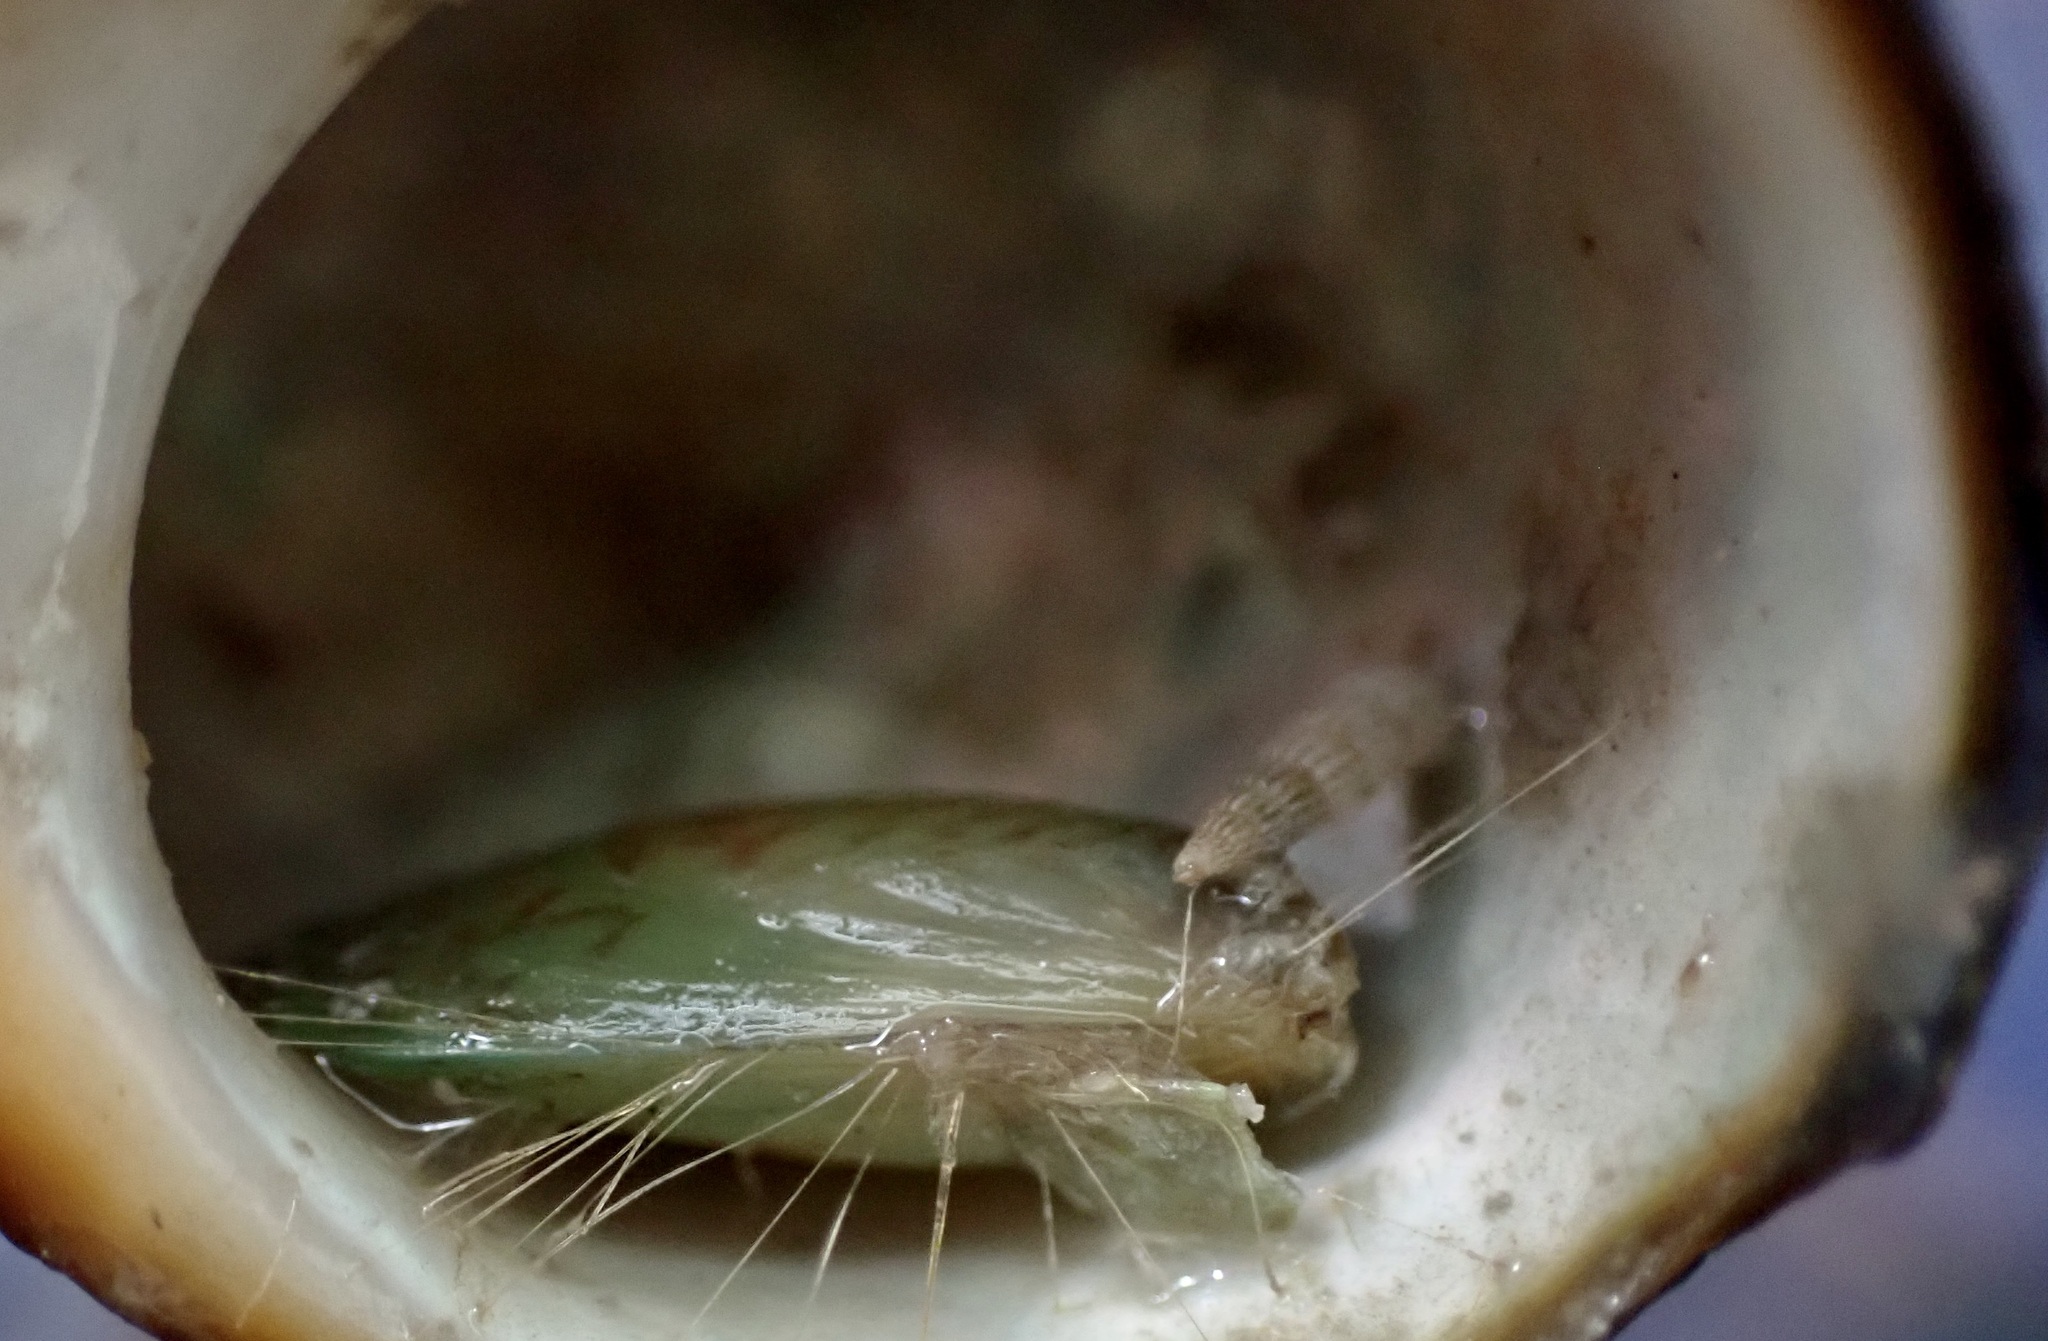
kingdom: Animalia
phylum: Mollusca
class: Bivalvia
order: Mytilida
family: Mytilidae
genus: Perna
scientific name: Perna canaliculus
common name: New zealand greenshelltm
